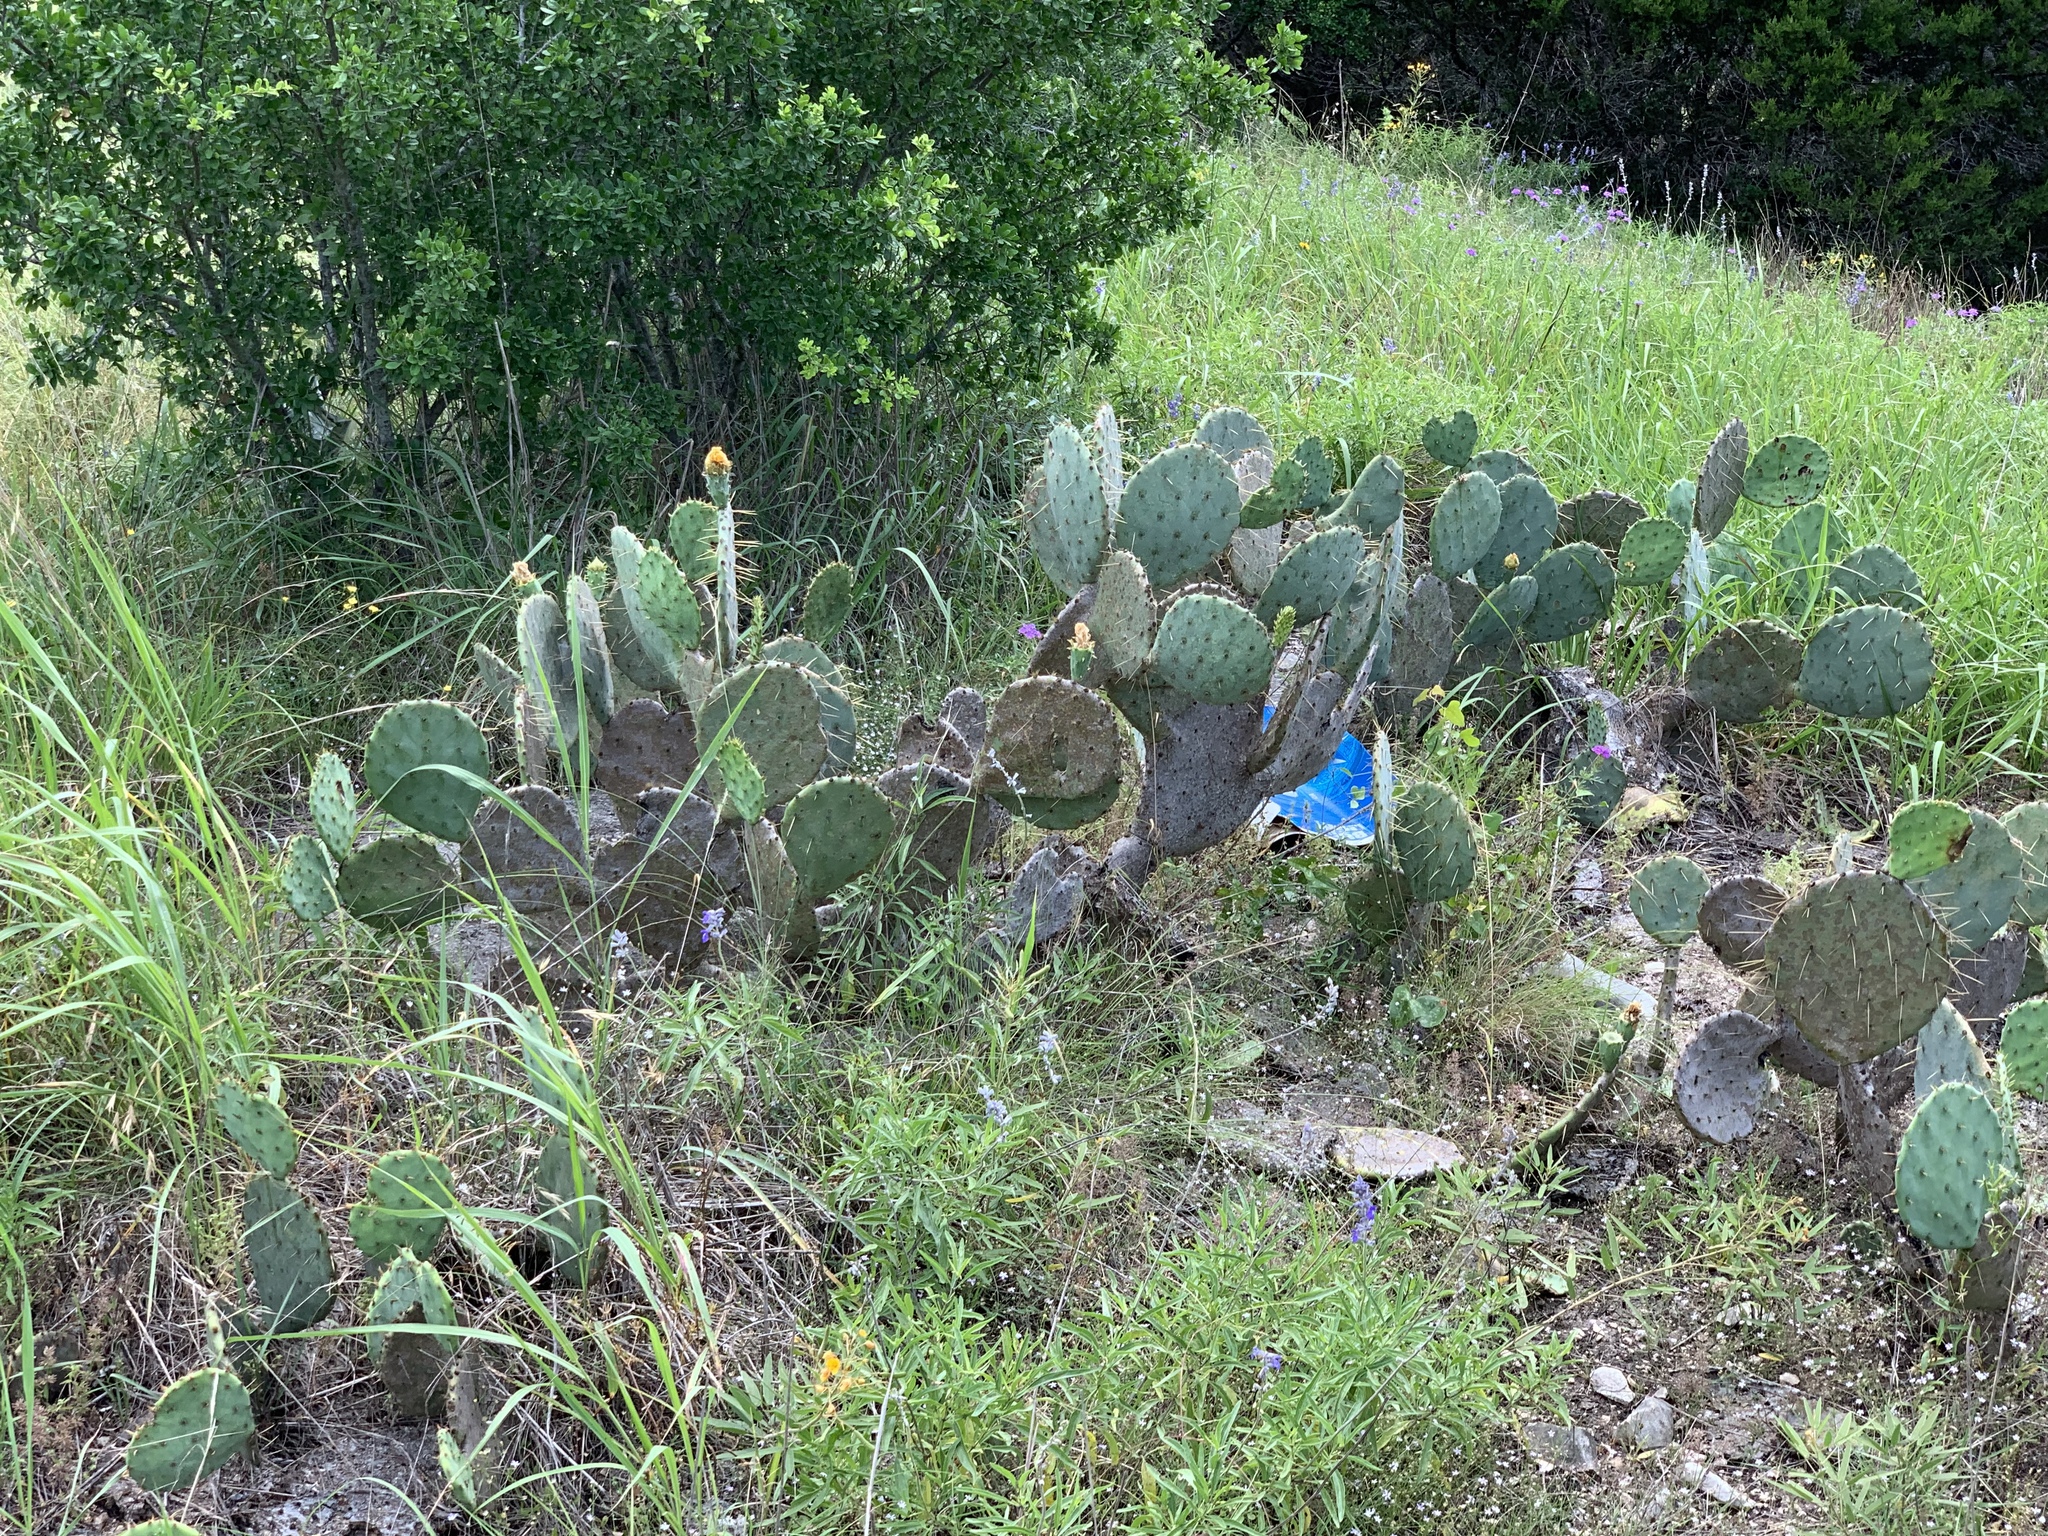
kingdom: Plantae
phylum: Tracheophyta
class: Magnoliopsida
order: Caryophyllales
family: Cactaceae
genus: Opuntia
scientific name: Opuntia engelmannii
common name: Cactus-apple
